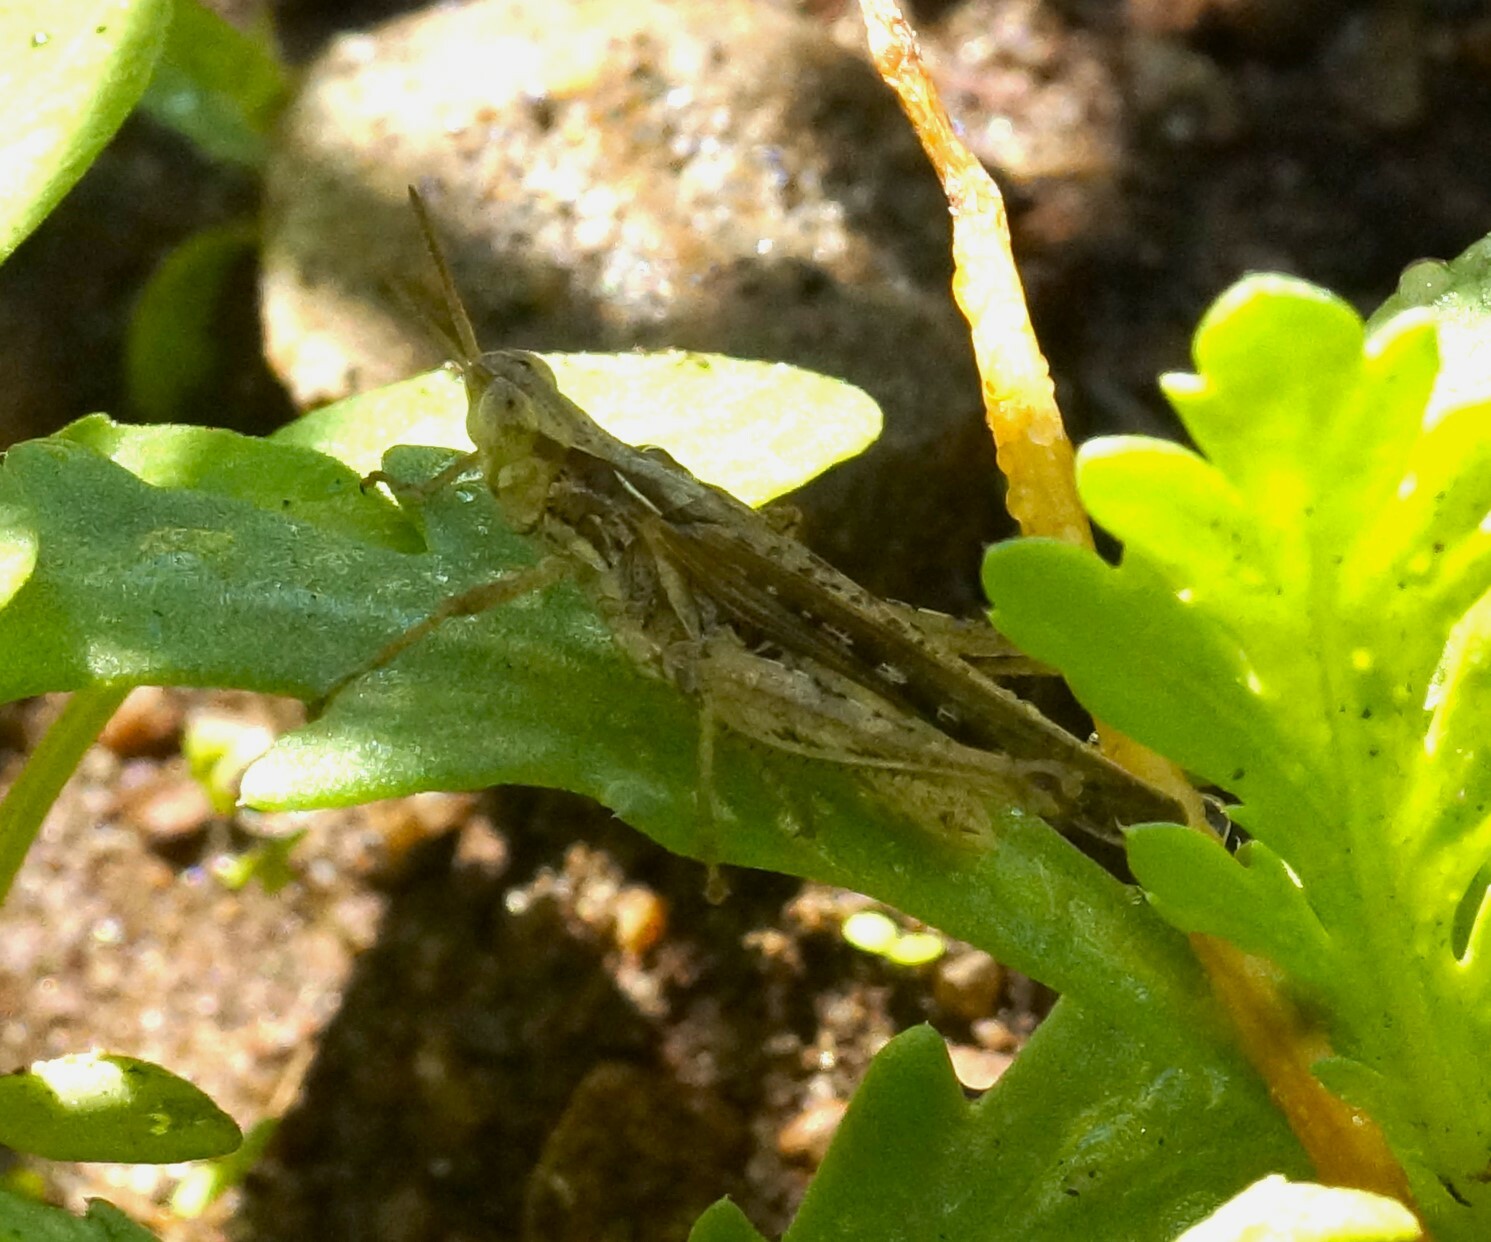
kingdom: Animalia
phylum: Arthropoda
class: Insecta
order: Orthoptera
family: Acrididae
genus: Calephorops
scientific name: Calephorops viridis
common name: Calephorops
